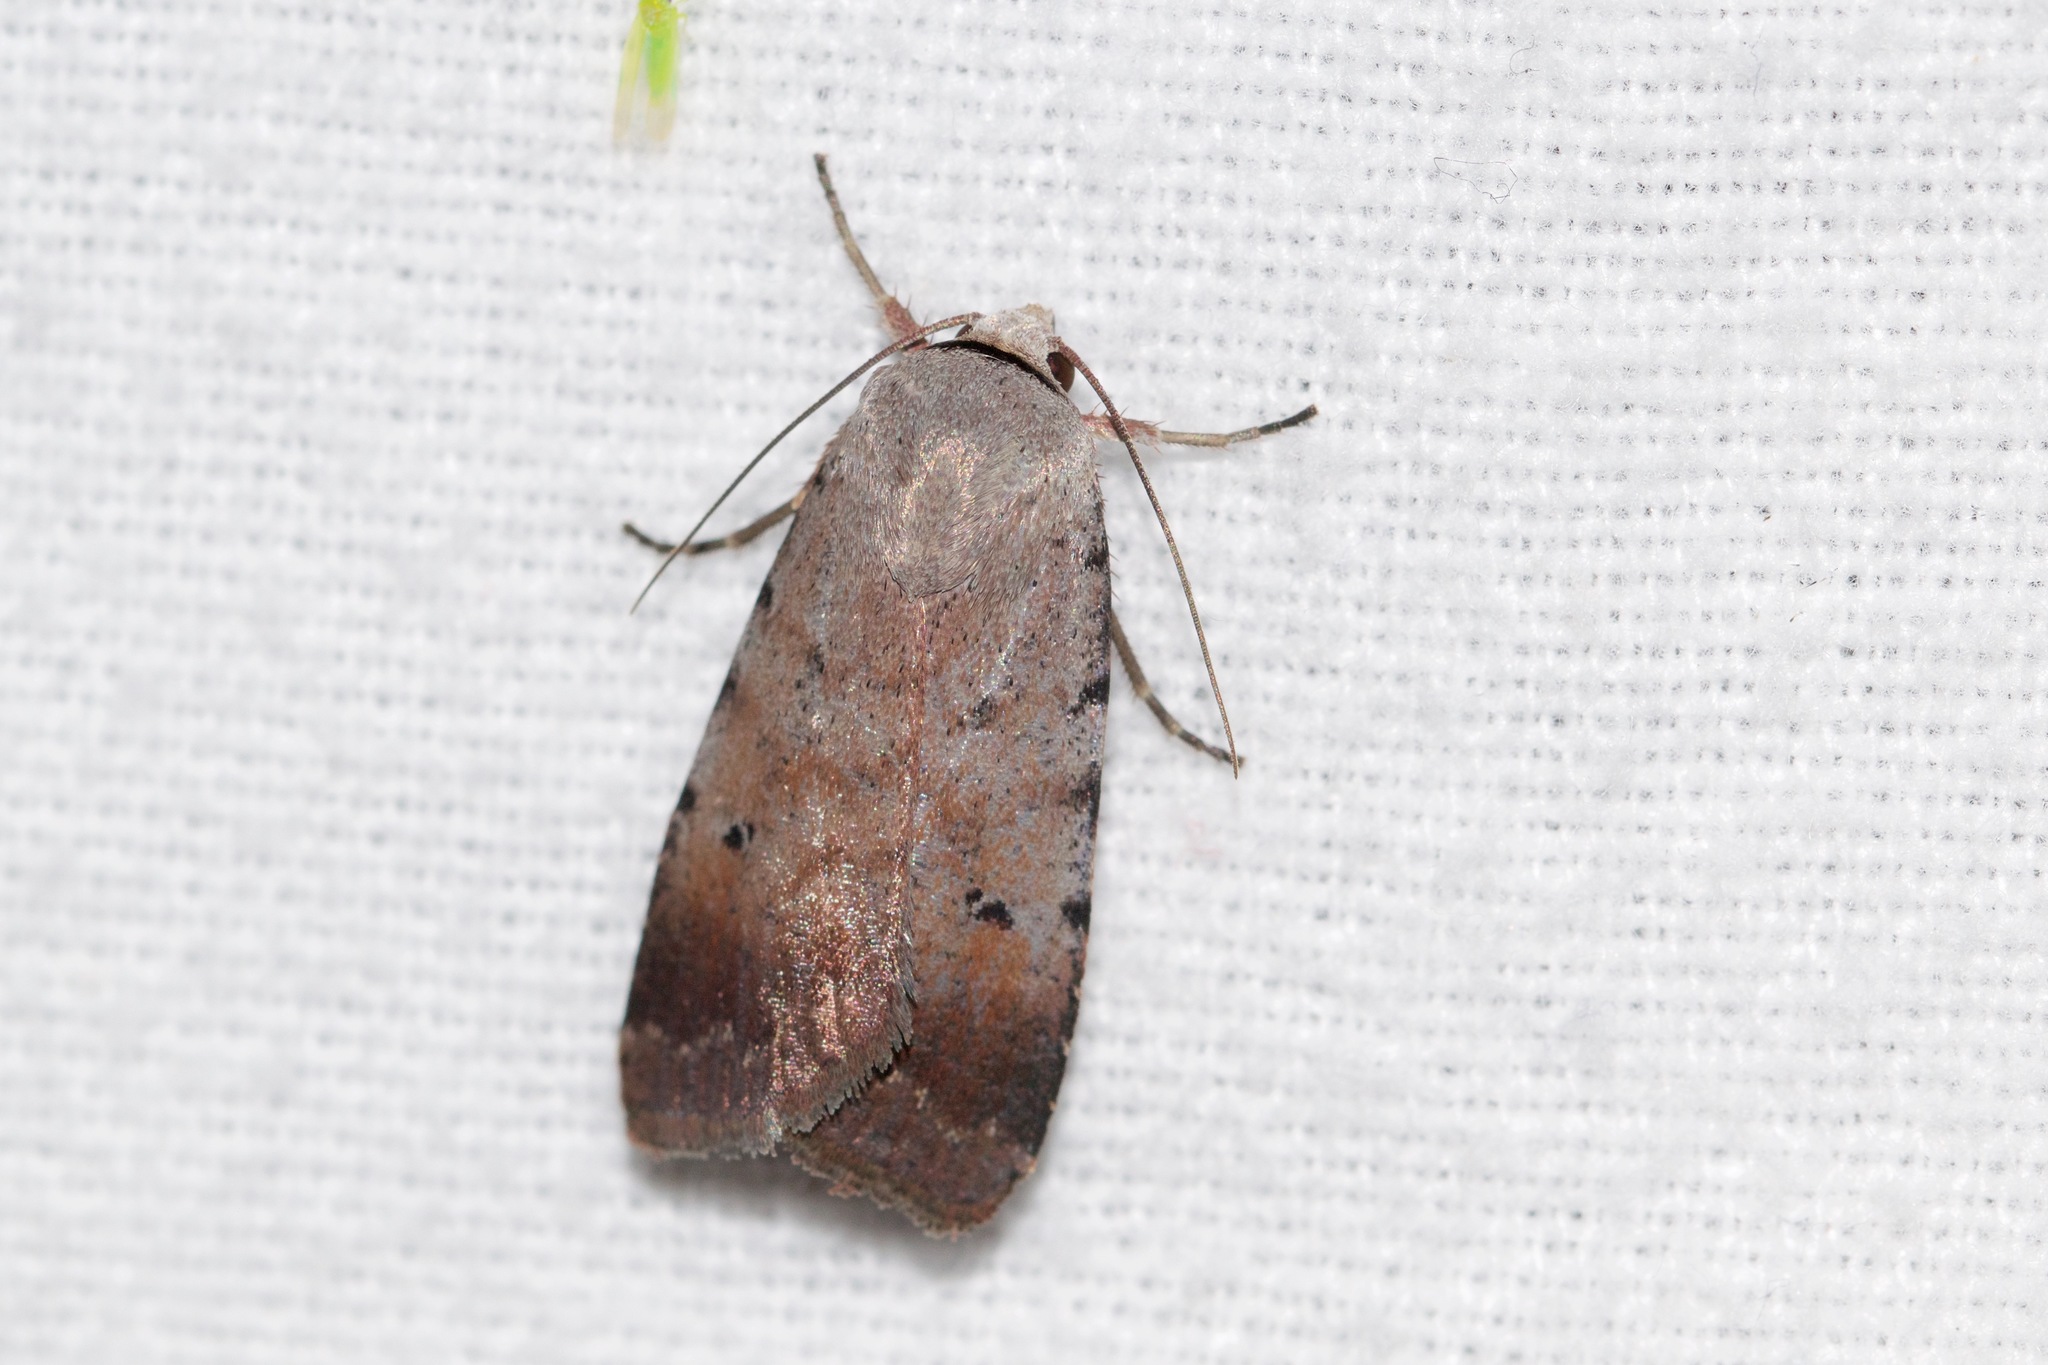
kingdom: Animalia
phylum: Arthropoda
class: Insecta
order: Lepidoptera
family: Noctuidae
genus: Anicla
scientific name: Anicla illapsa
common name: Snowy dart
